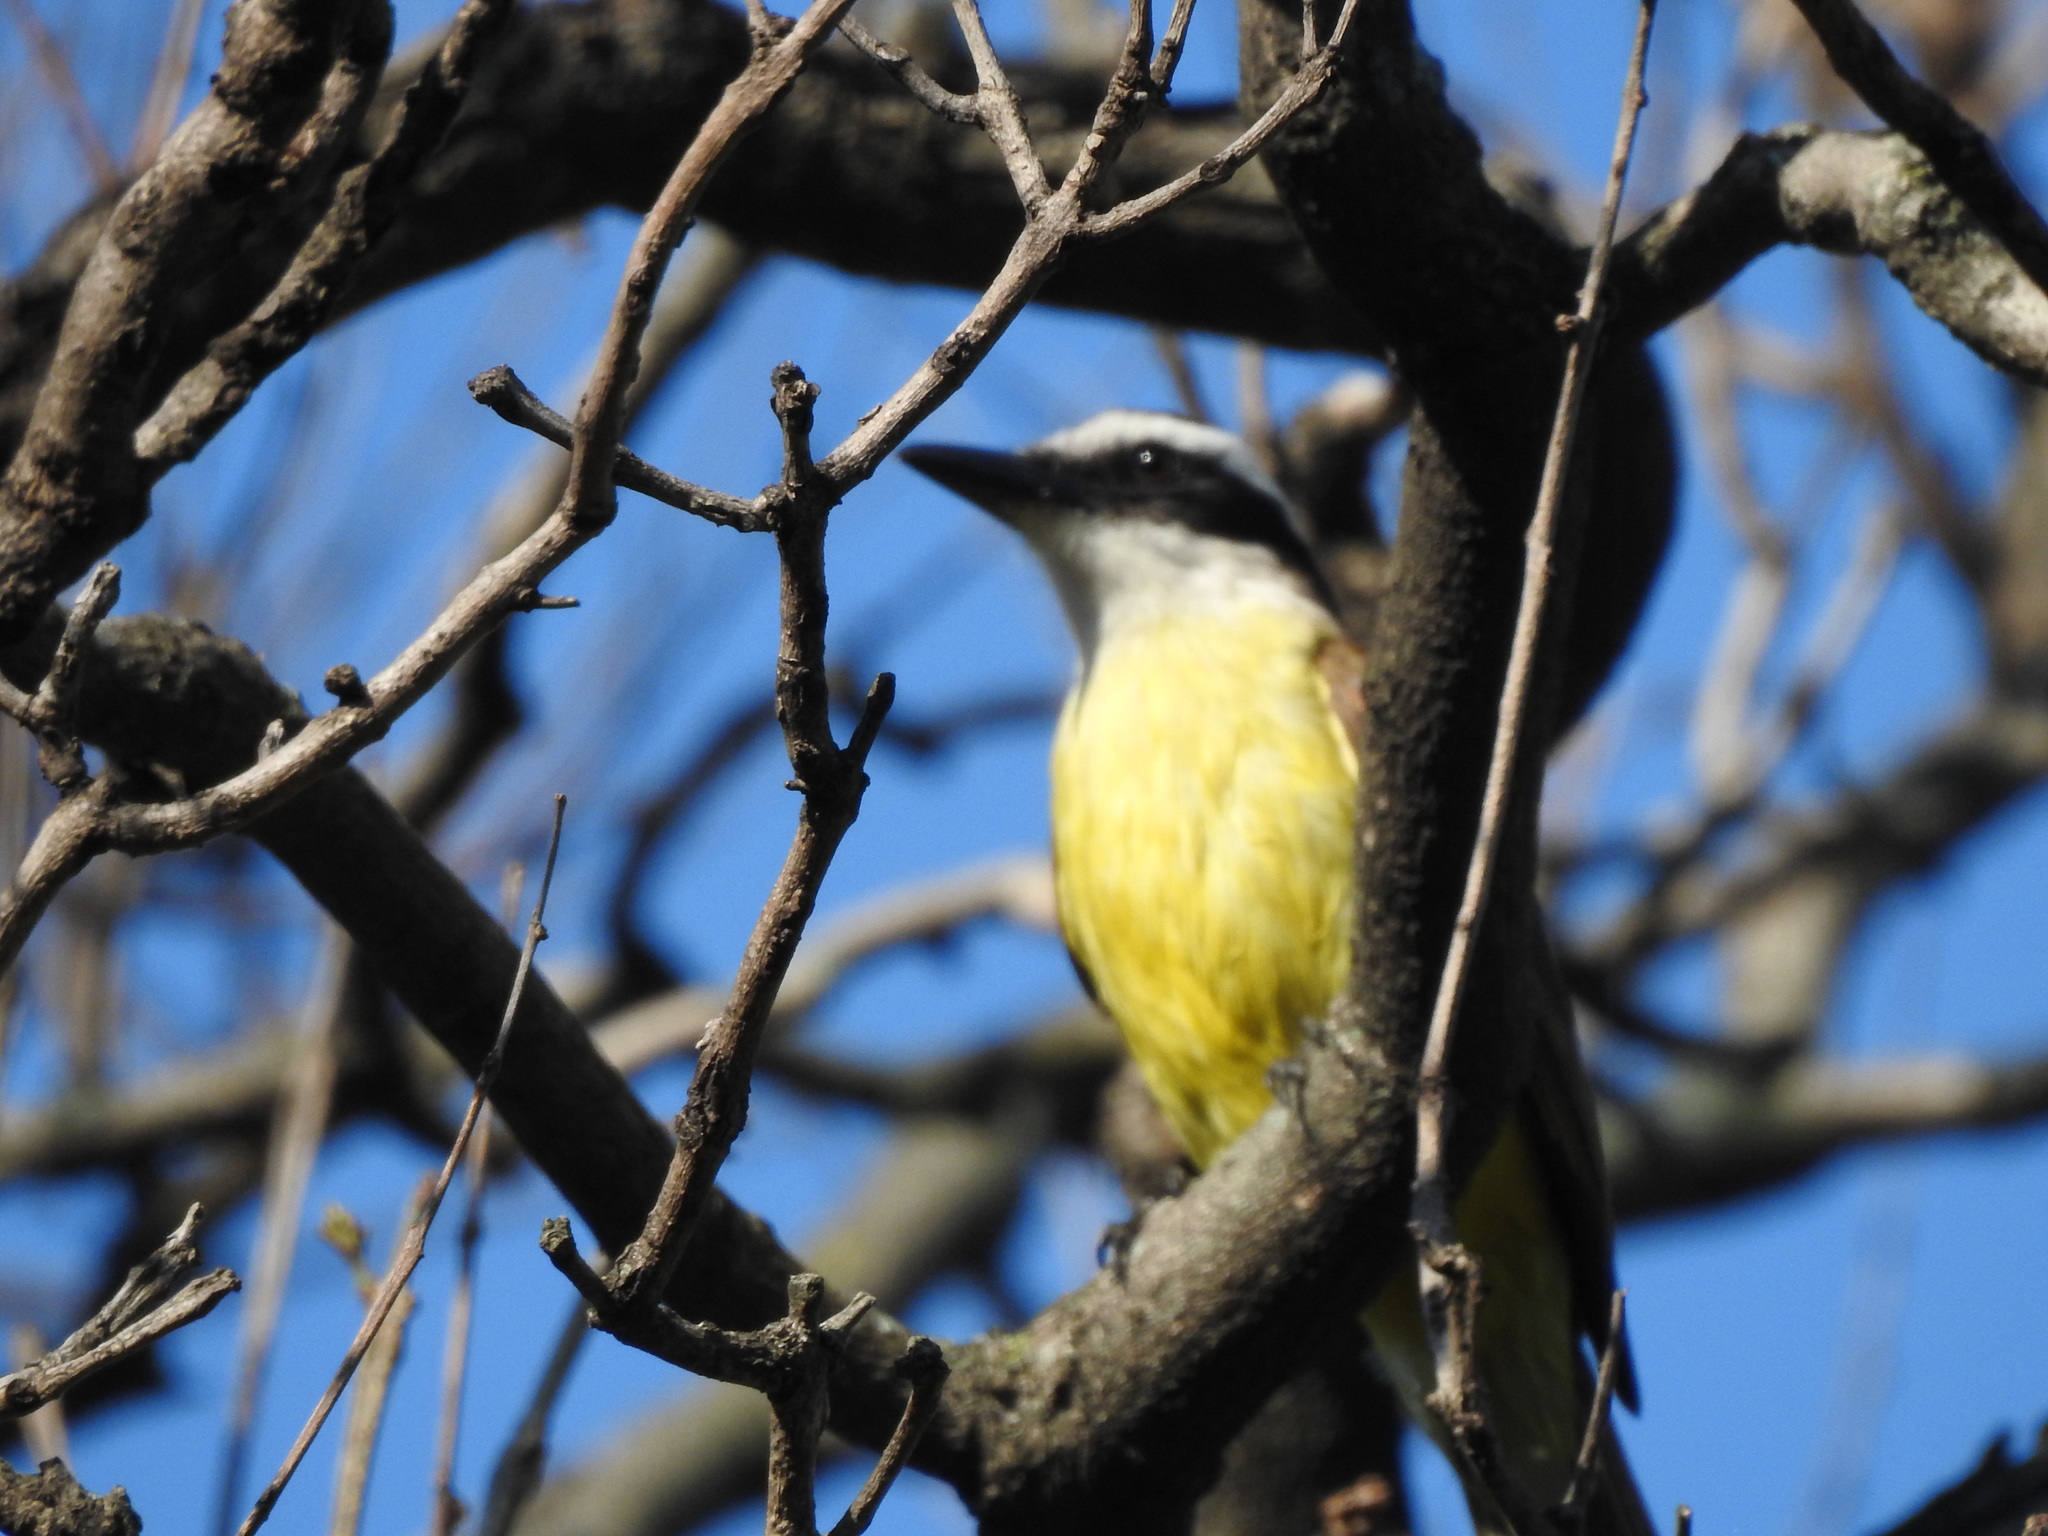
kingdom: Animalia
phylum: Chordata
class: Aves
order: Passeriformes
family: Tyrannidae
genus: Pitangus
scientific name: Pitangus sulphuratus
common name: Great kiskadee
